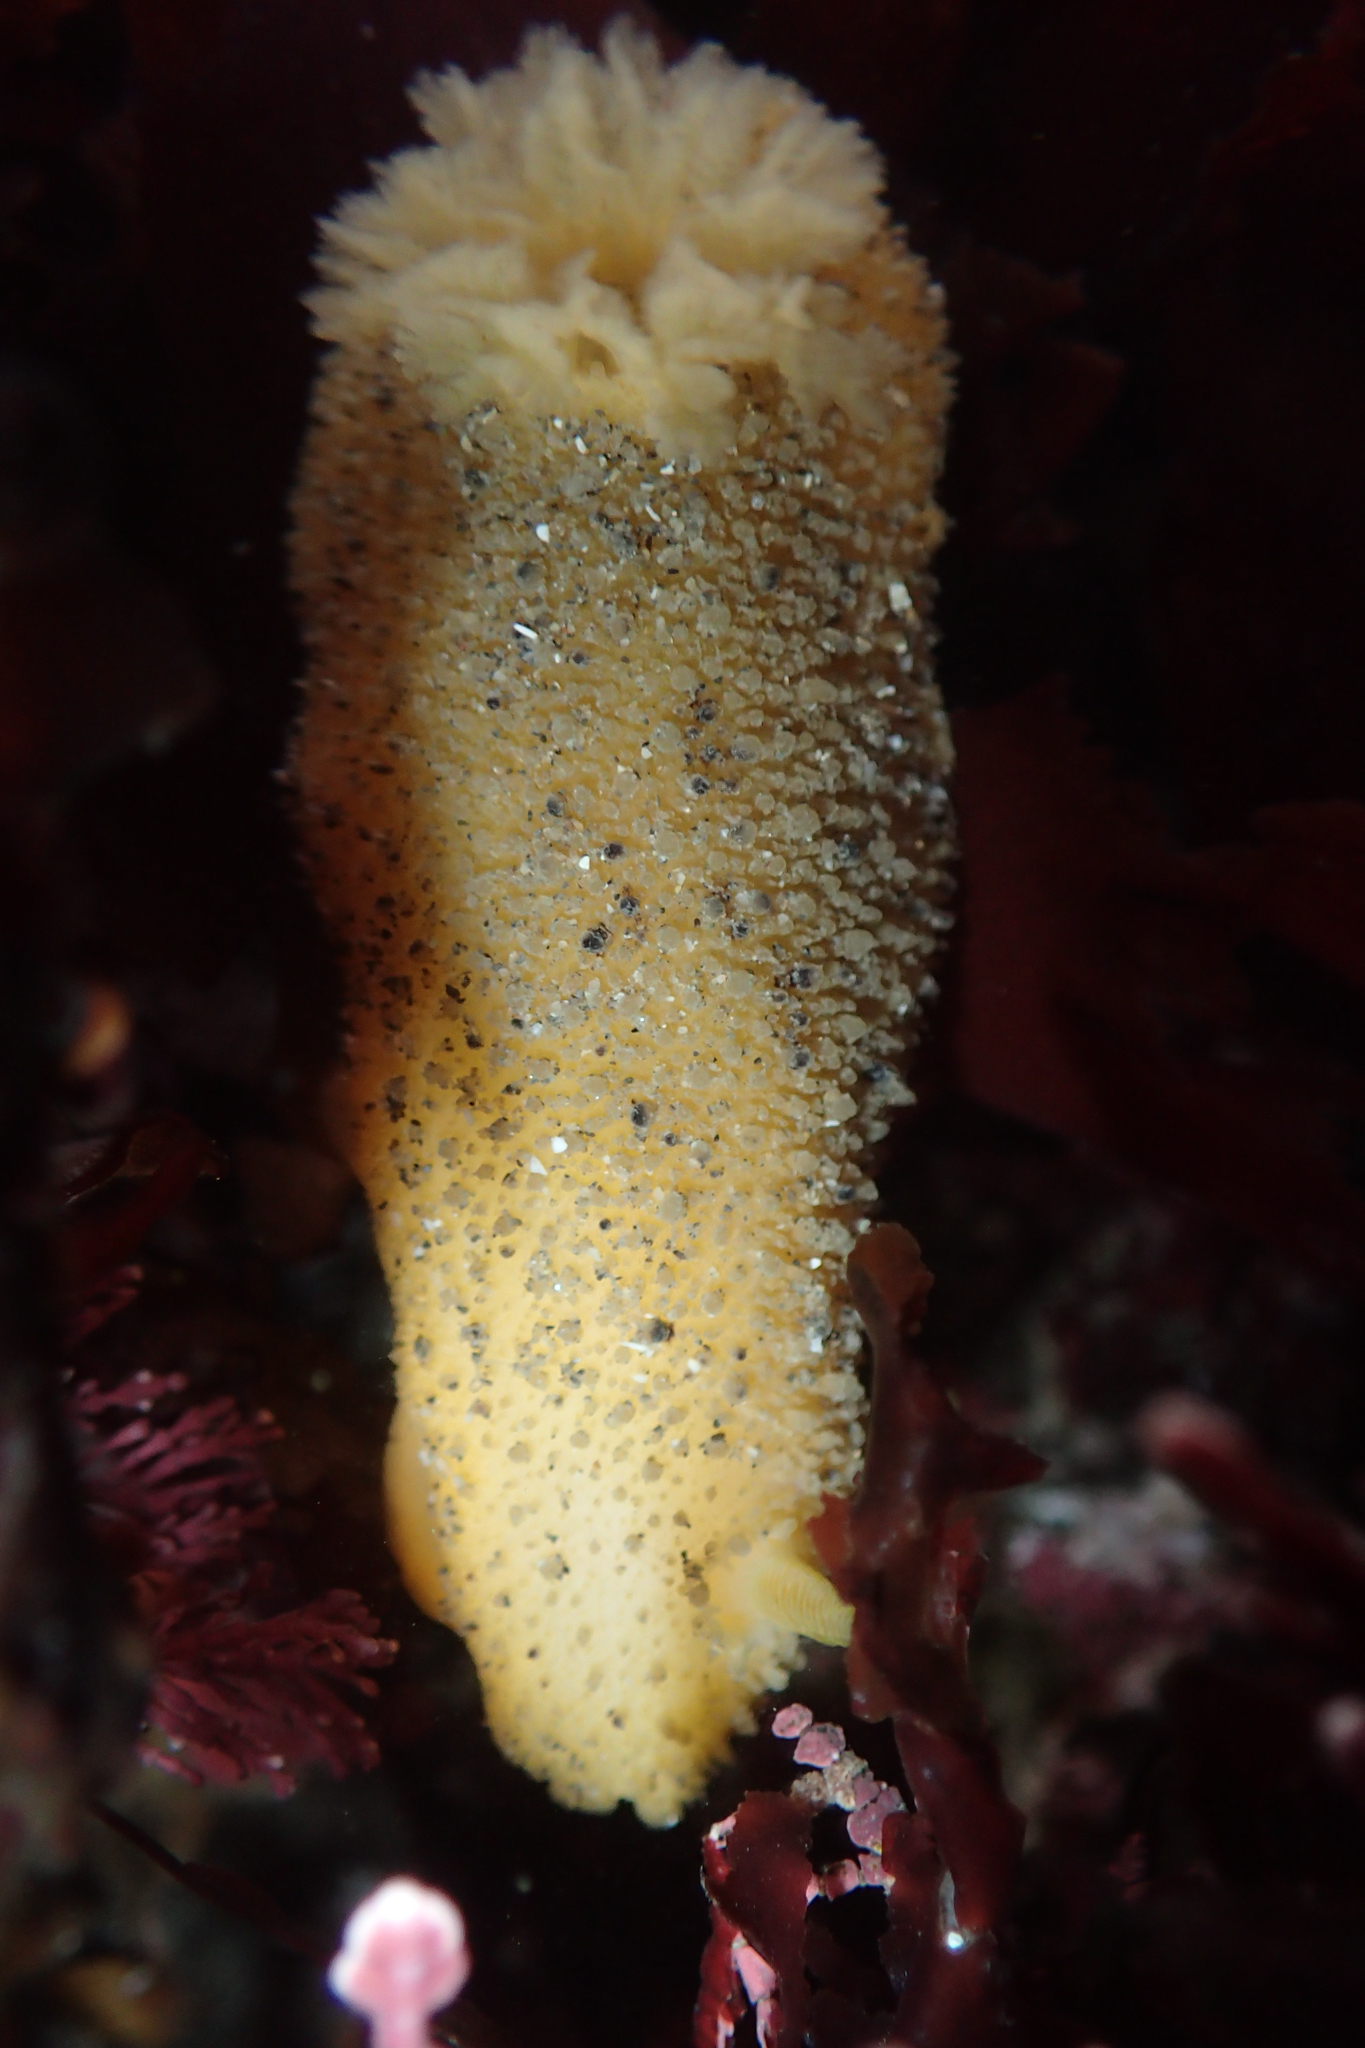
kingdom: Animalia
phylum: Mollusca
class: Gastropoda
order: Nudibranchia
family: Dorididae
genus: Doris
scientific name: Doris montereyensis
